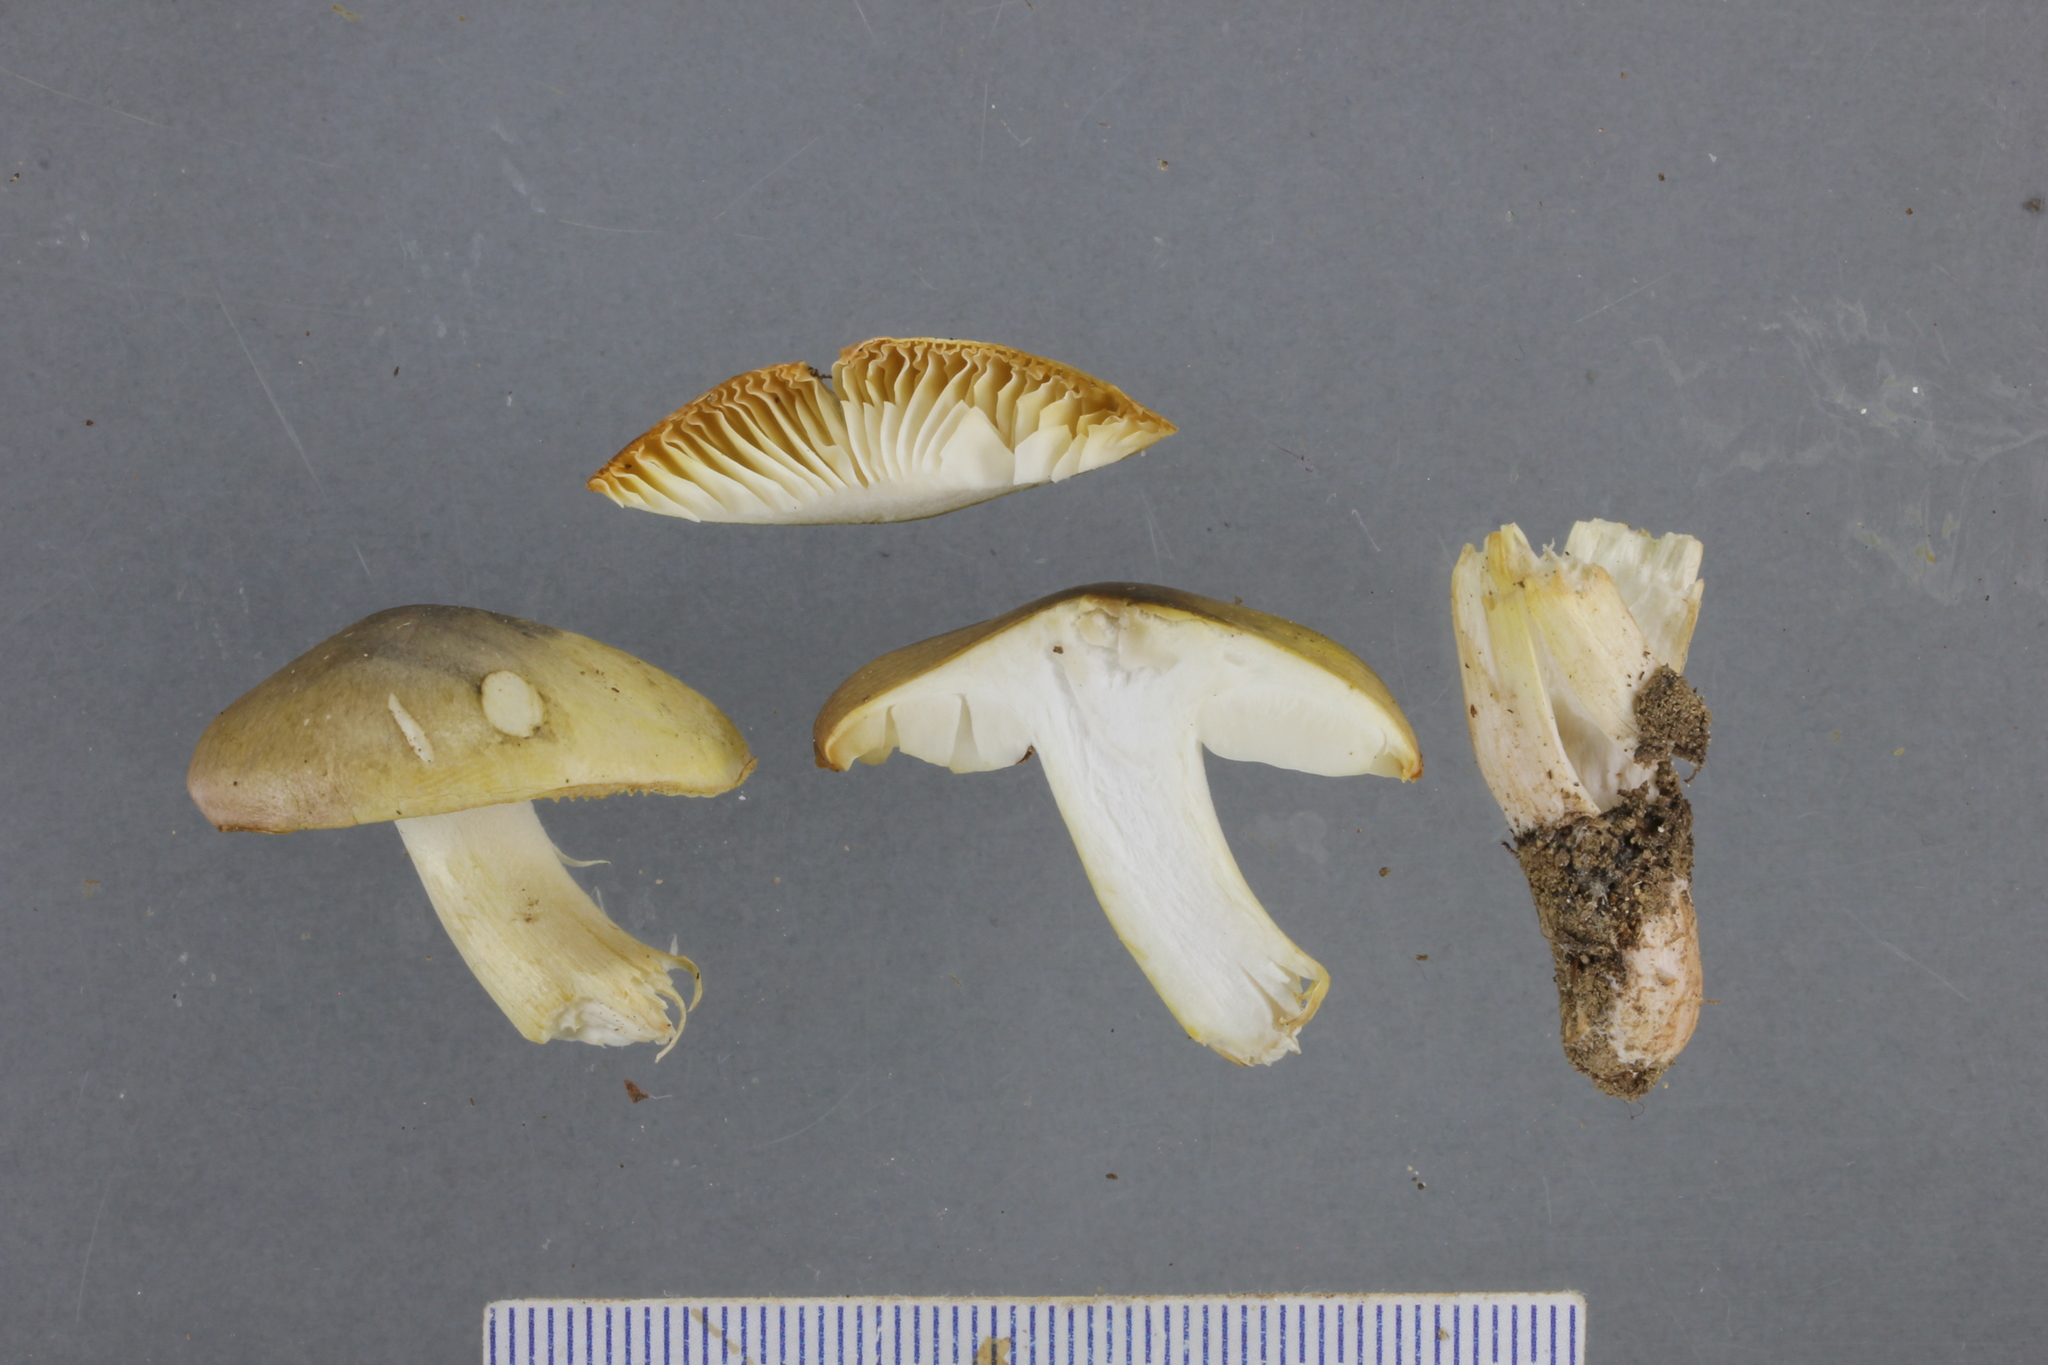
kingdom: Fungi
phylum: Basidiomycota
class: Agaricomycetes
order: Agaricales
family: Tricholomataceae
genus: Tricholoma
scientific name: Tricholoma viridiolivaceum
